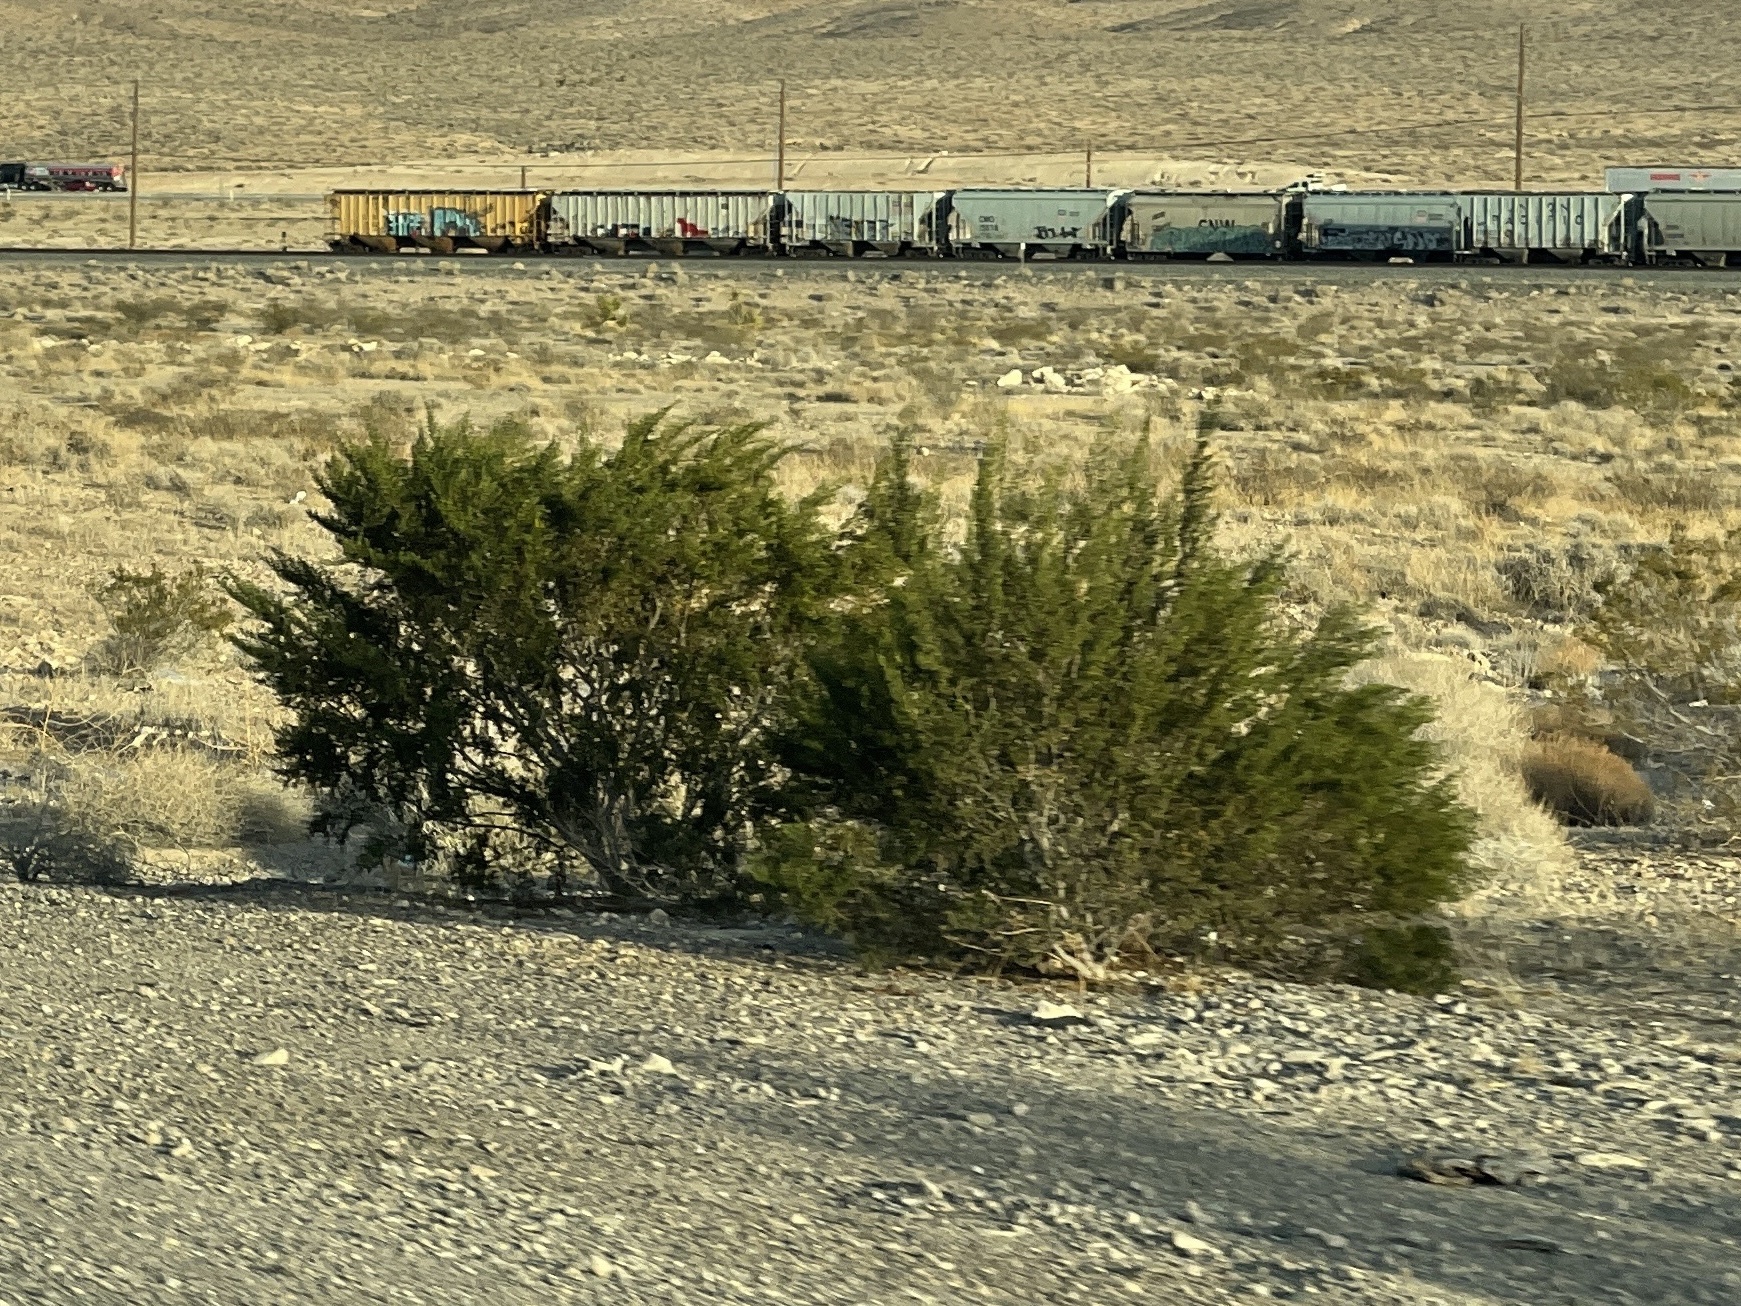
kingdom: Plantae
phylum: Tracheophyta
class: Magnoliopsida
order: Zygophyllales
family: Zygophyllaceae
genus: Larrea
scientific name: Larrea tridentata
